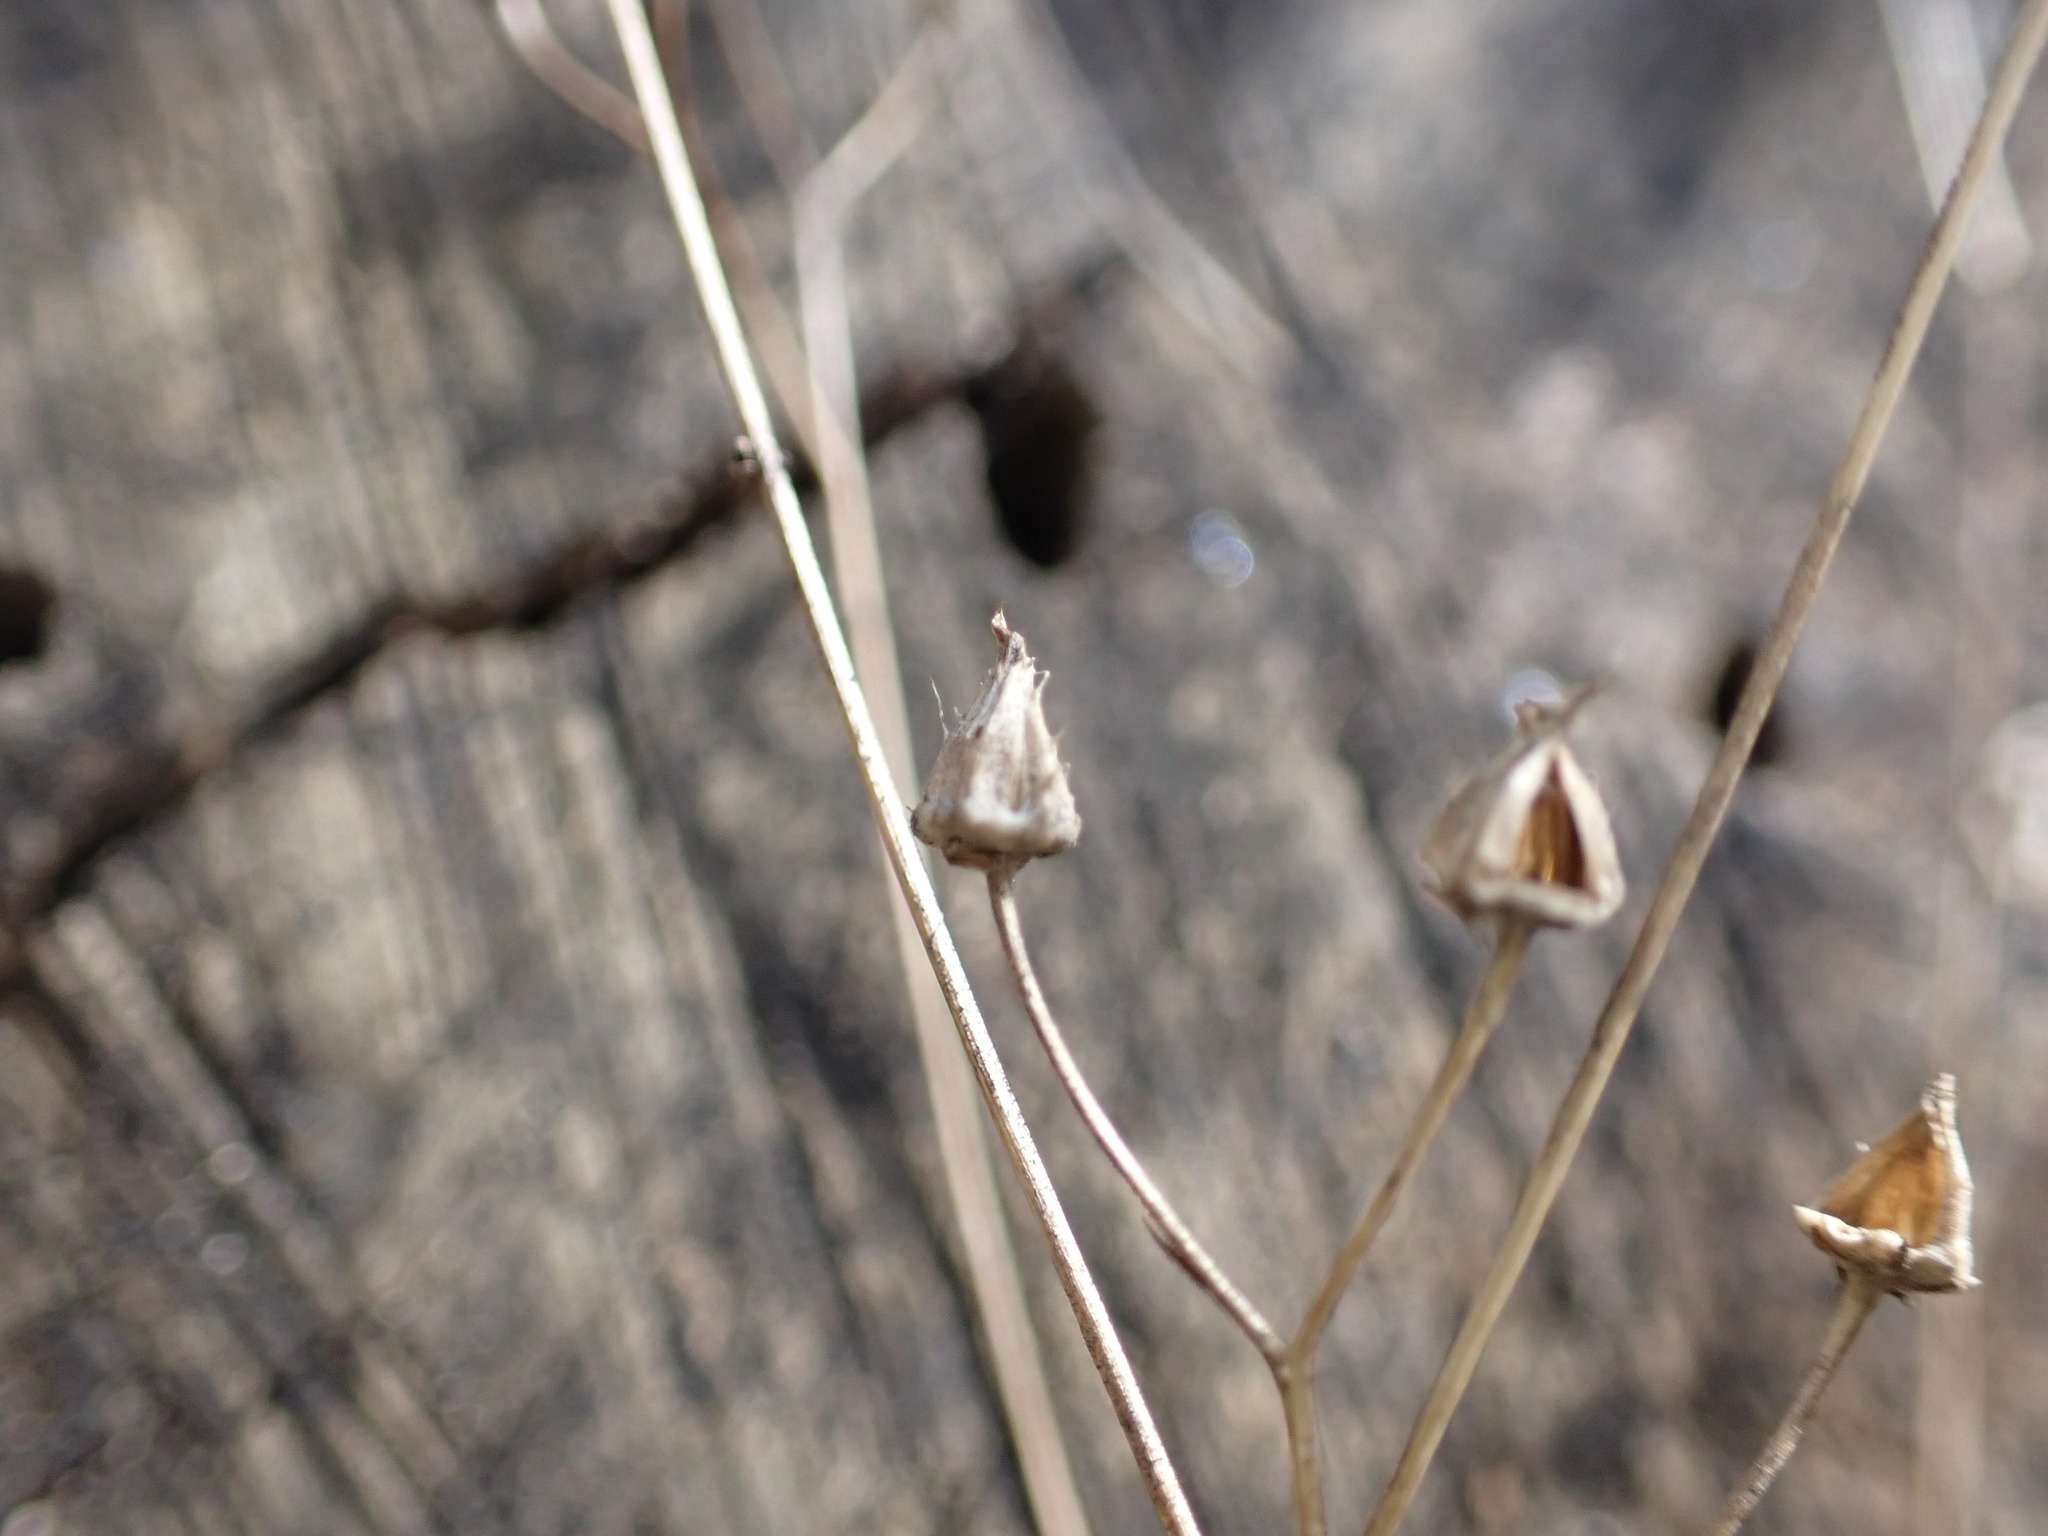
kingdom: Plantae
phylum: Tracheophyta
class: Magnoliopsida
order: Asterales
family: Asteraceae
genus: Crepis
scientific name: Crepis pulchra
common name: Hawk's-beard
